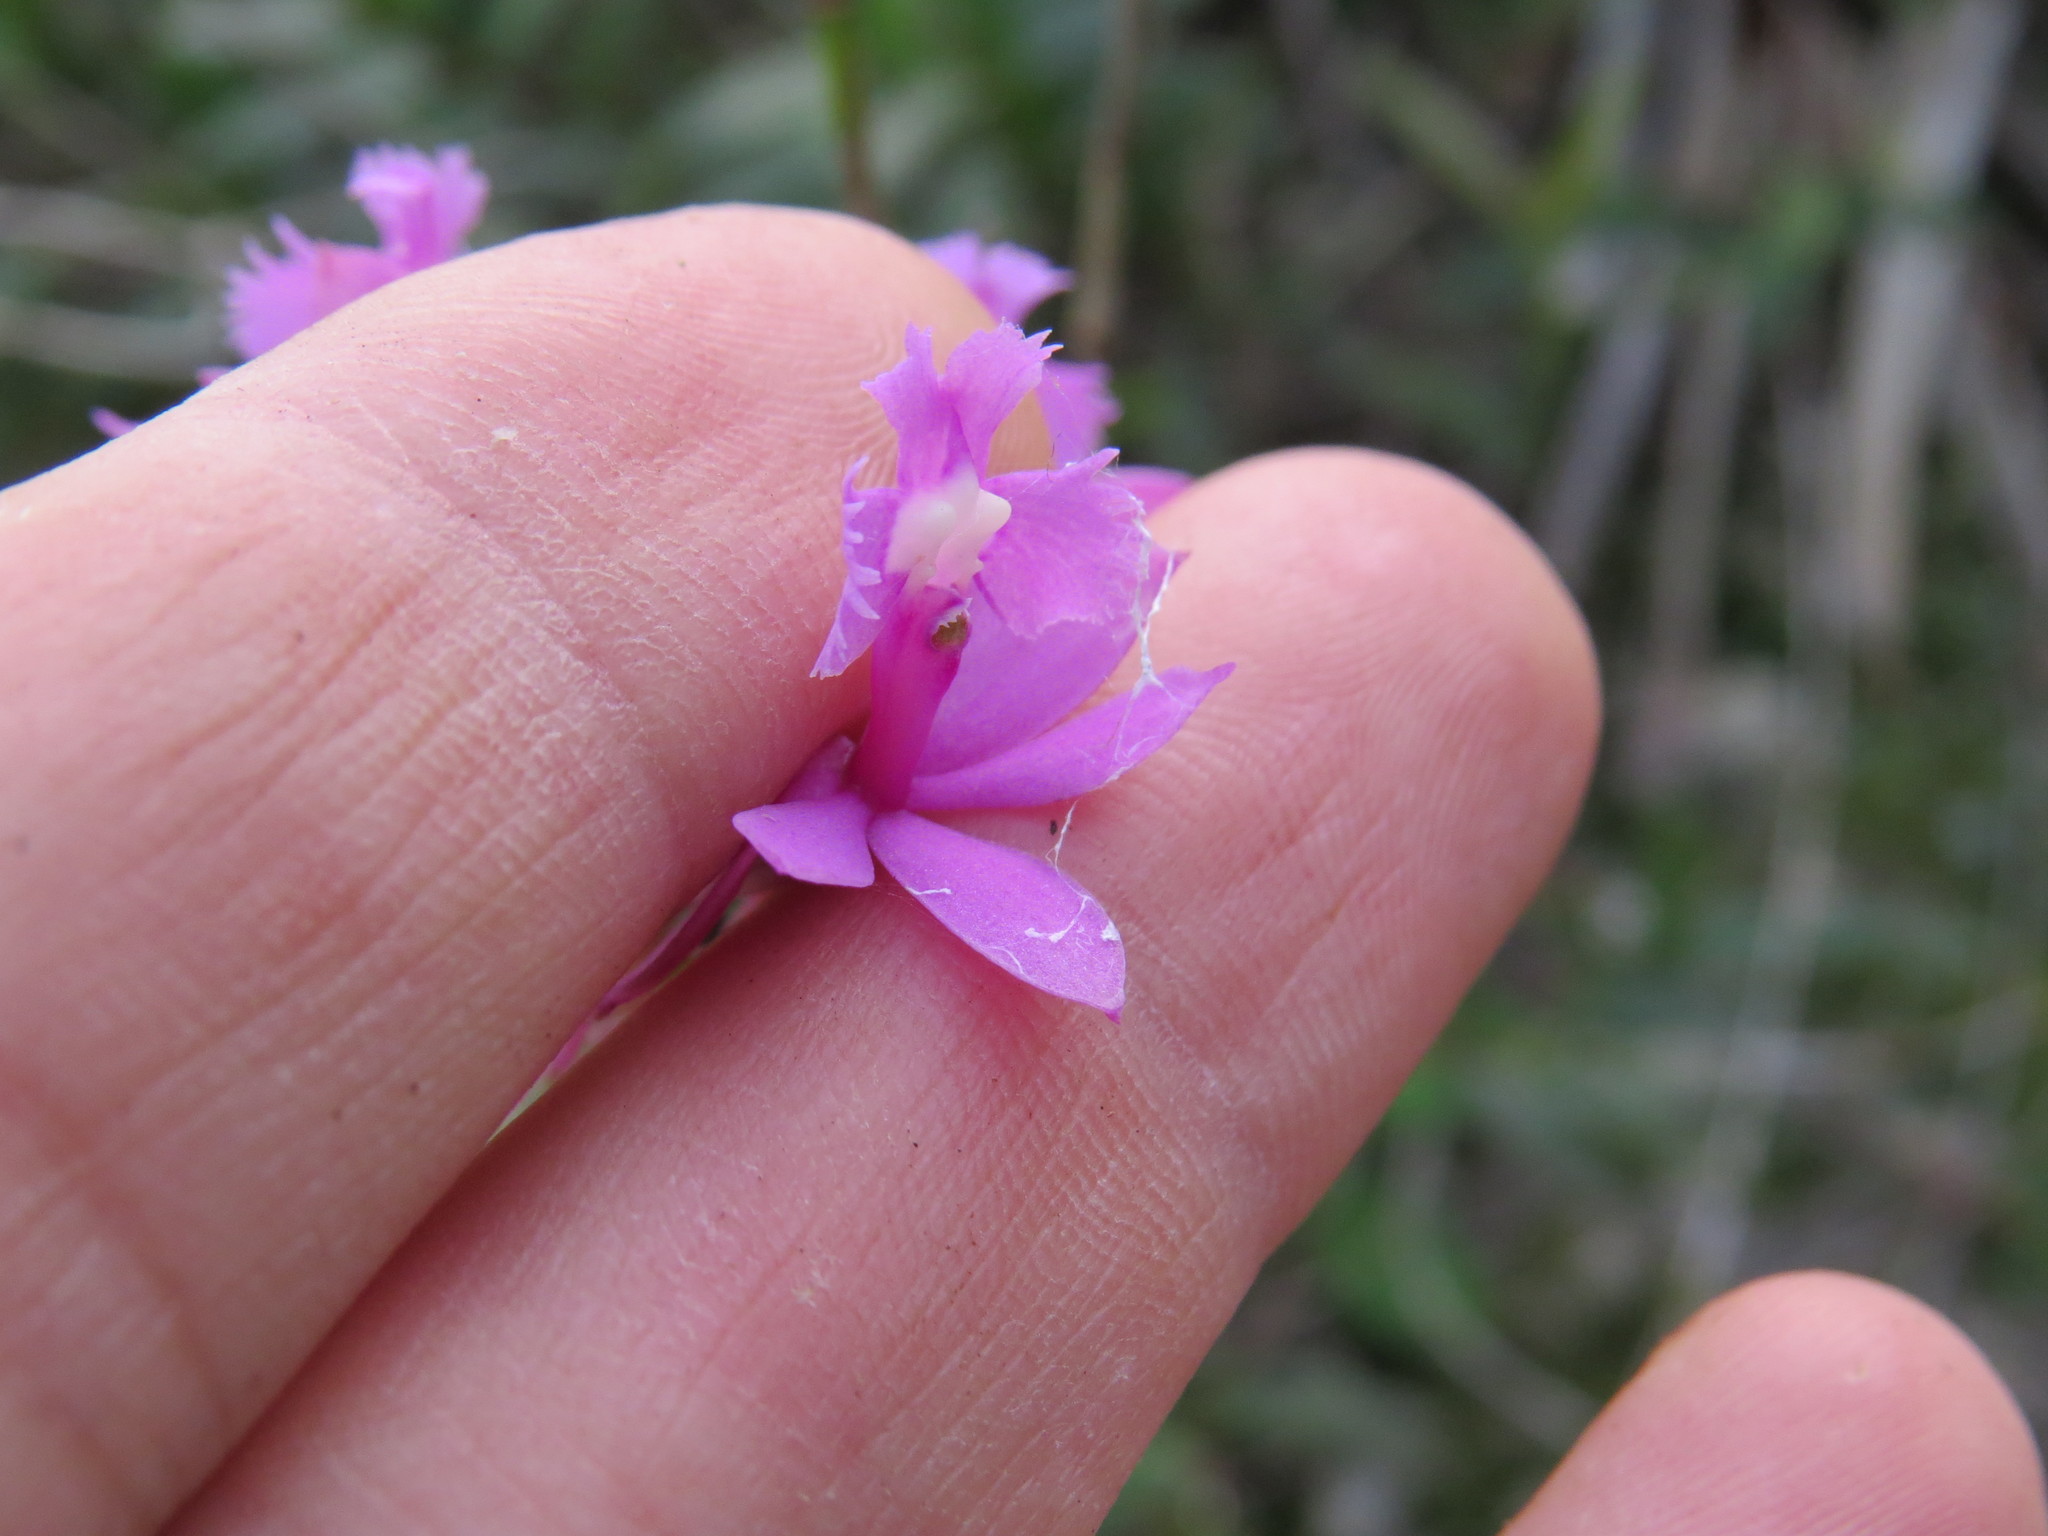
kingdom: Plantae
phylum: Tracheophyta
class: Liliopsida
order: Asparagales
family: Orchidaceae
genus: Epidendrum
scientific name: Epidendrum denticulatum
